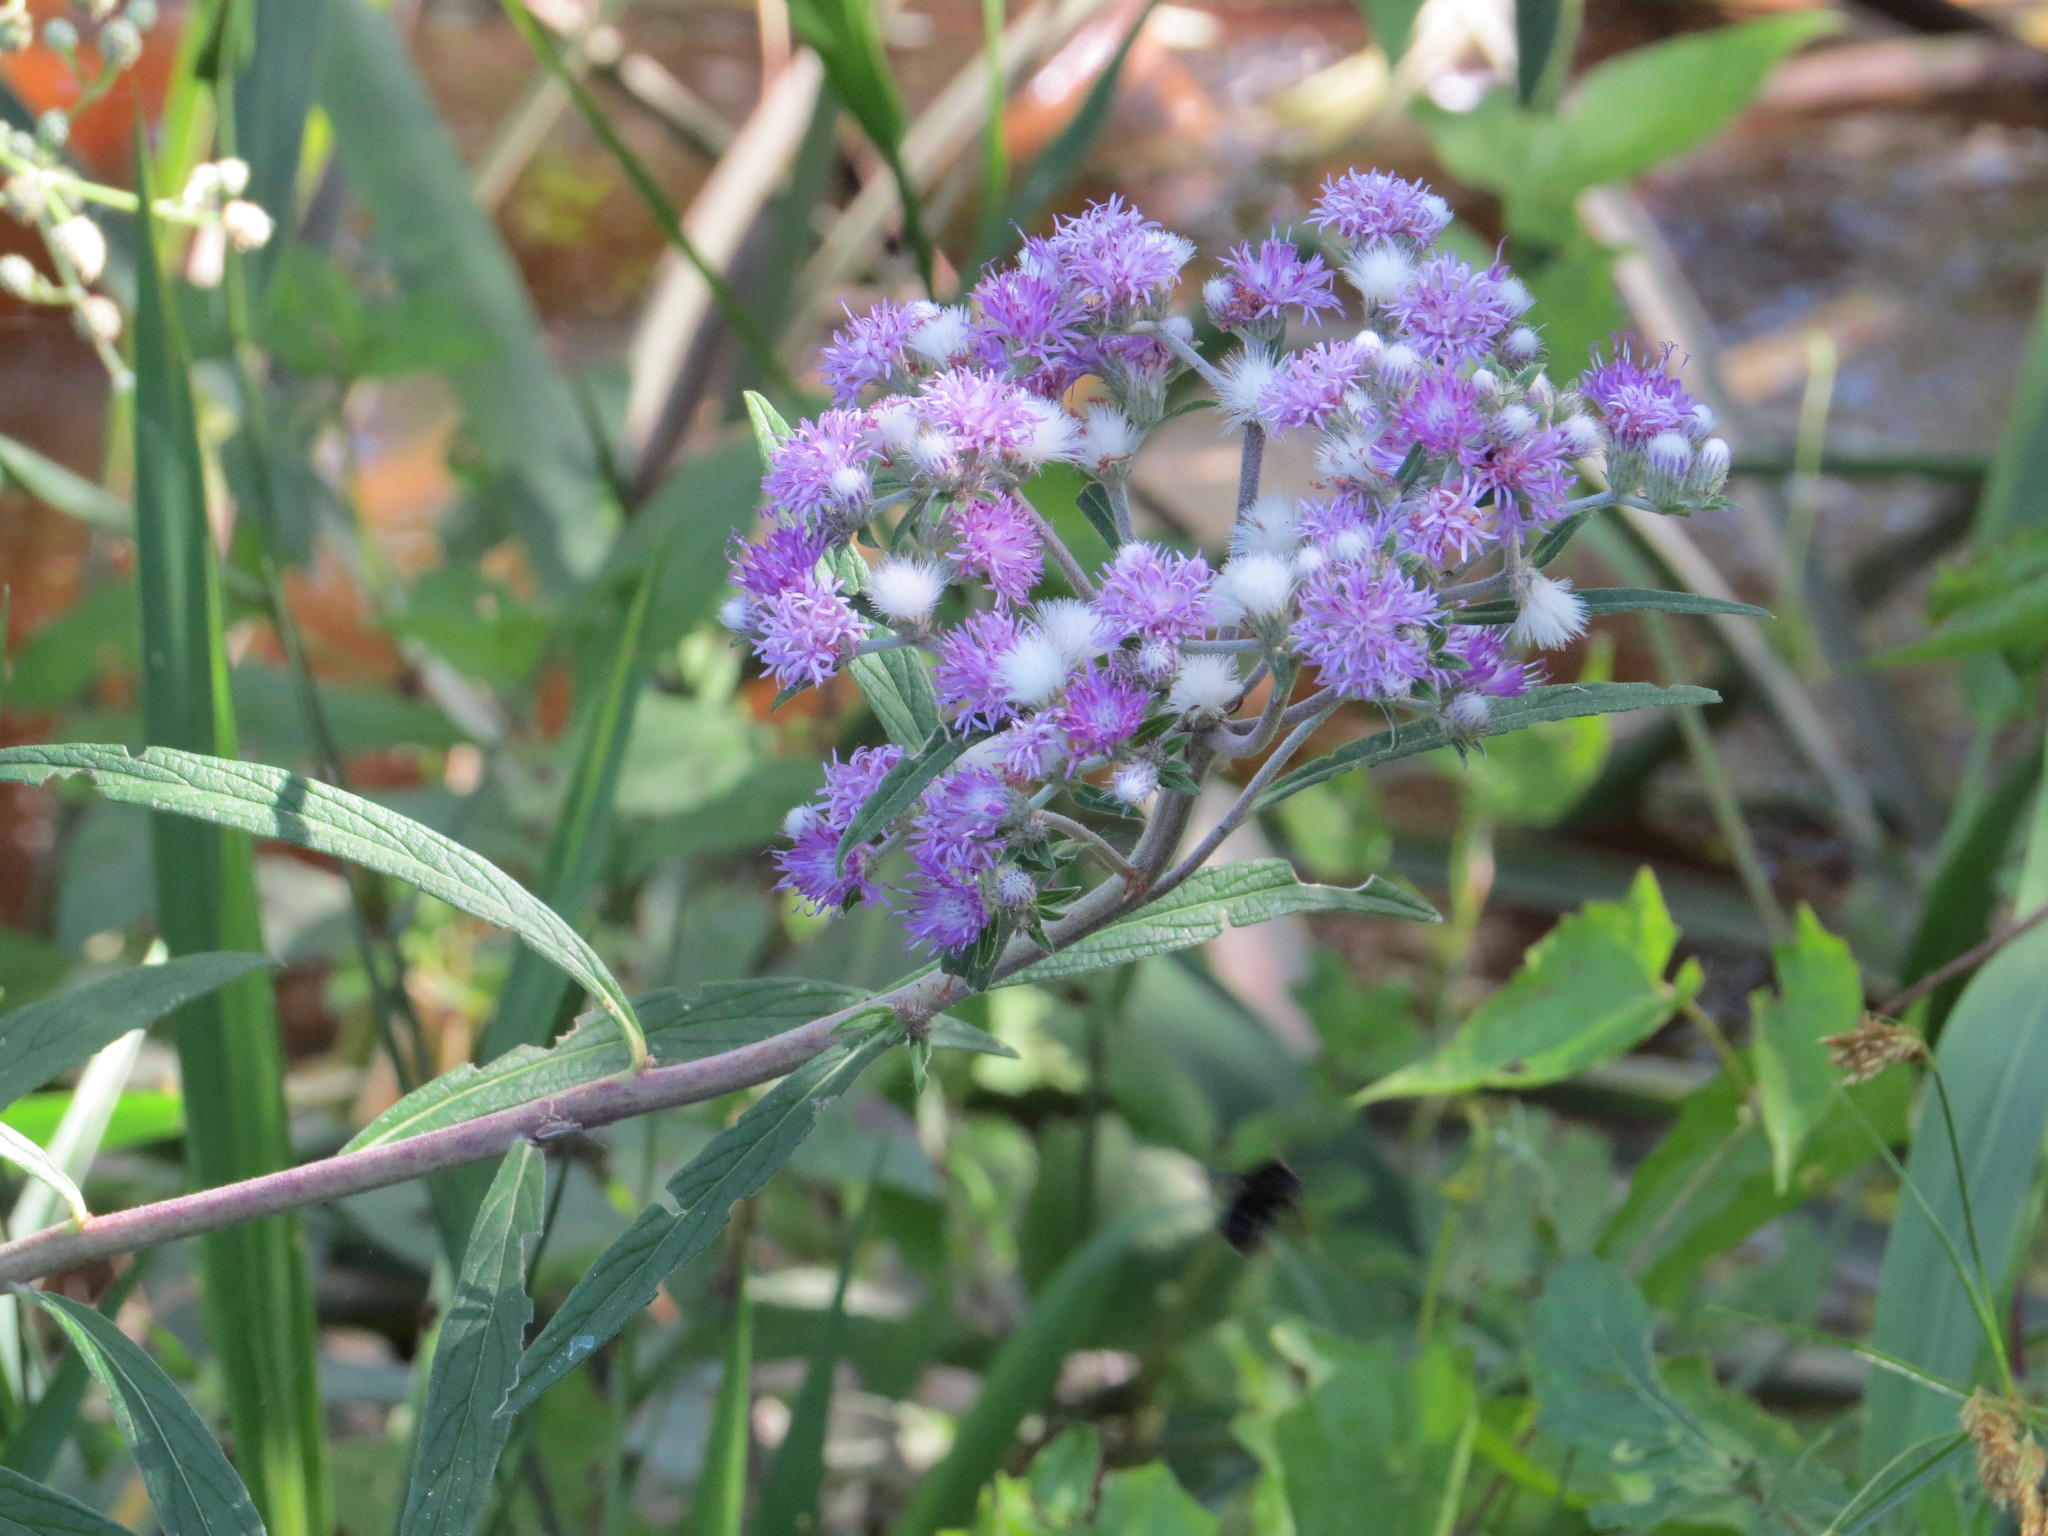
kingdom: Plantae
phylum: Tracheophyta
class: Magnoliopsida
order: Asterales
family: Asteraceae
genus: Chrysolaena
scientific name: Chrysolaena platensis
